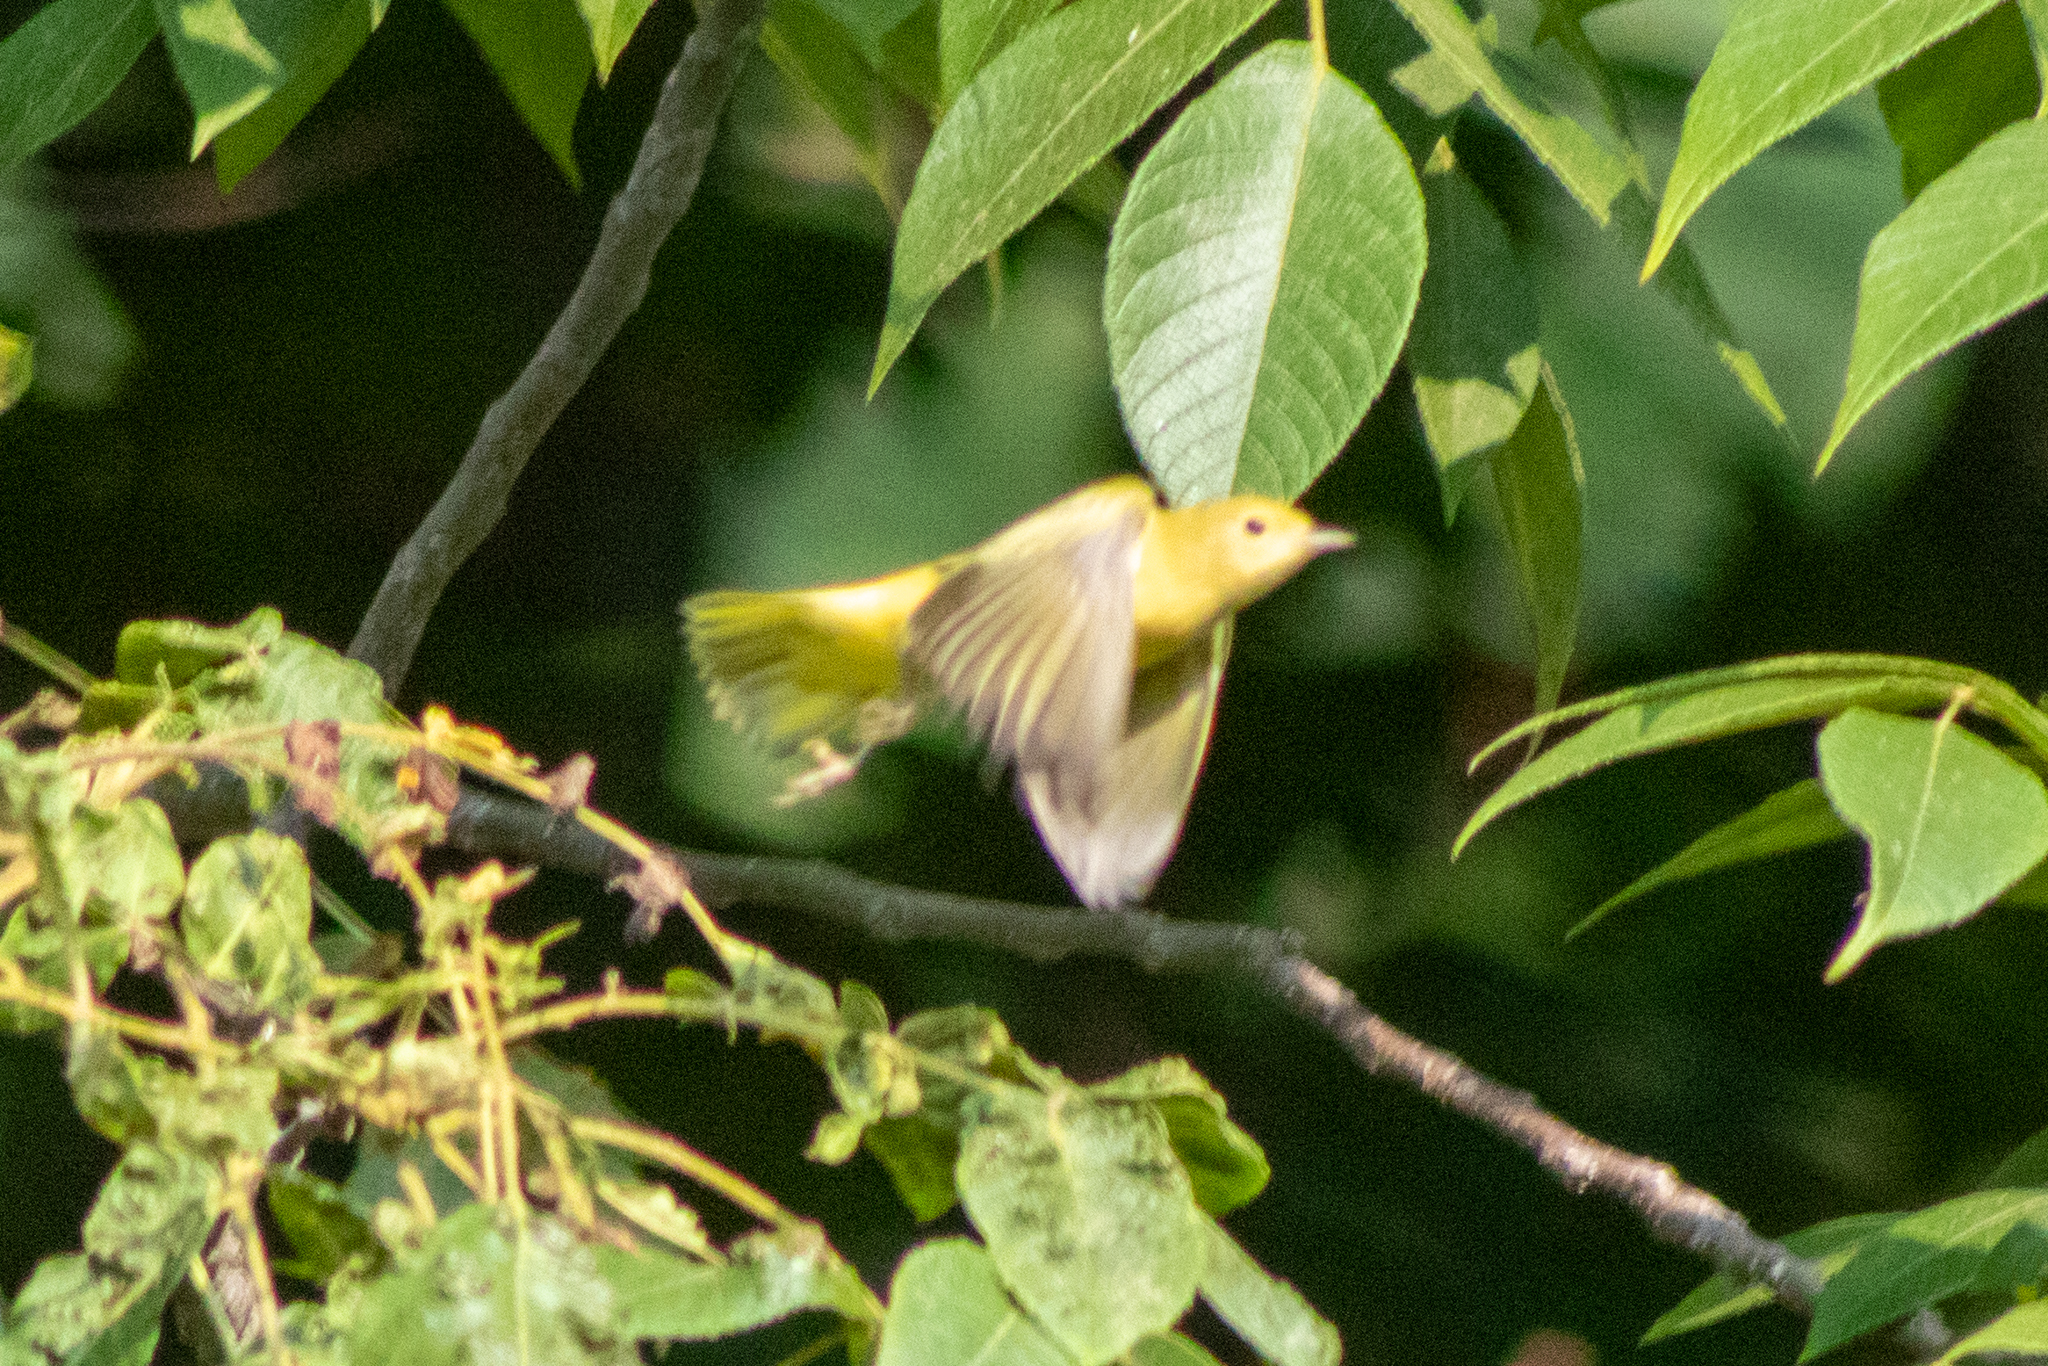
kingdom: Animalia
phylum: Chordata
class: Aves
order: Passeriformes
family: Parulidae
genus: Setophaga
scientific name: Setophaga petechia
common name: Yellow warbler
